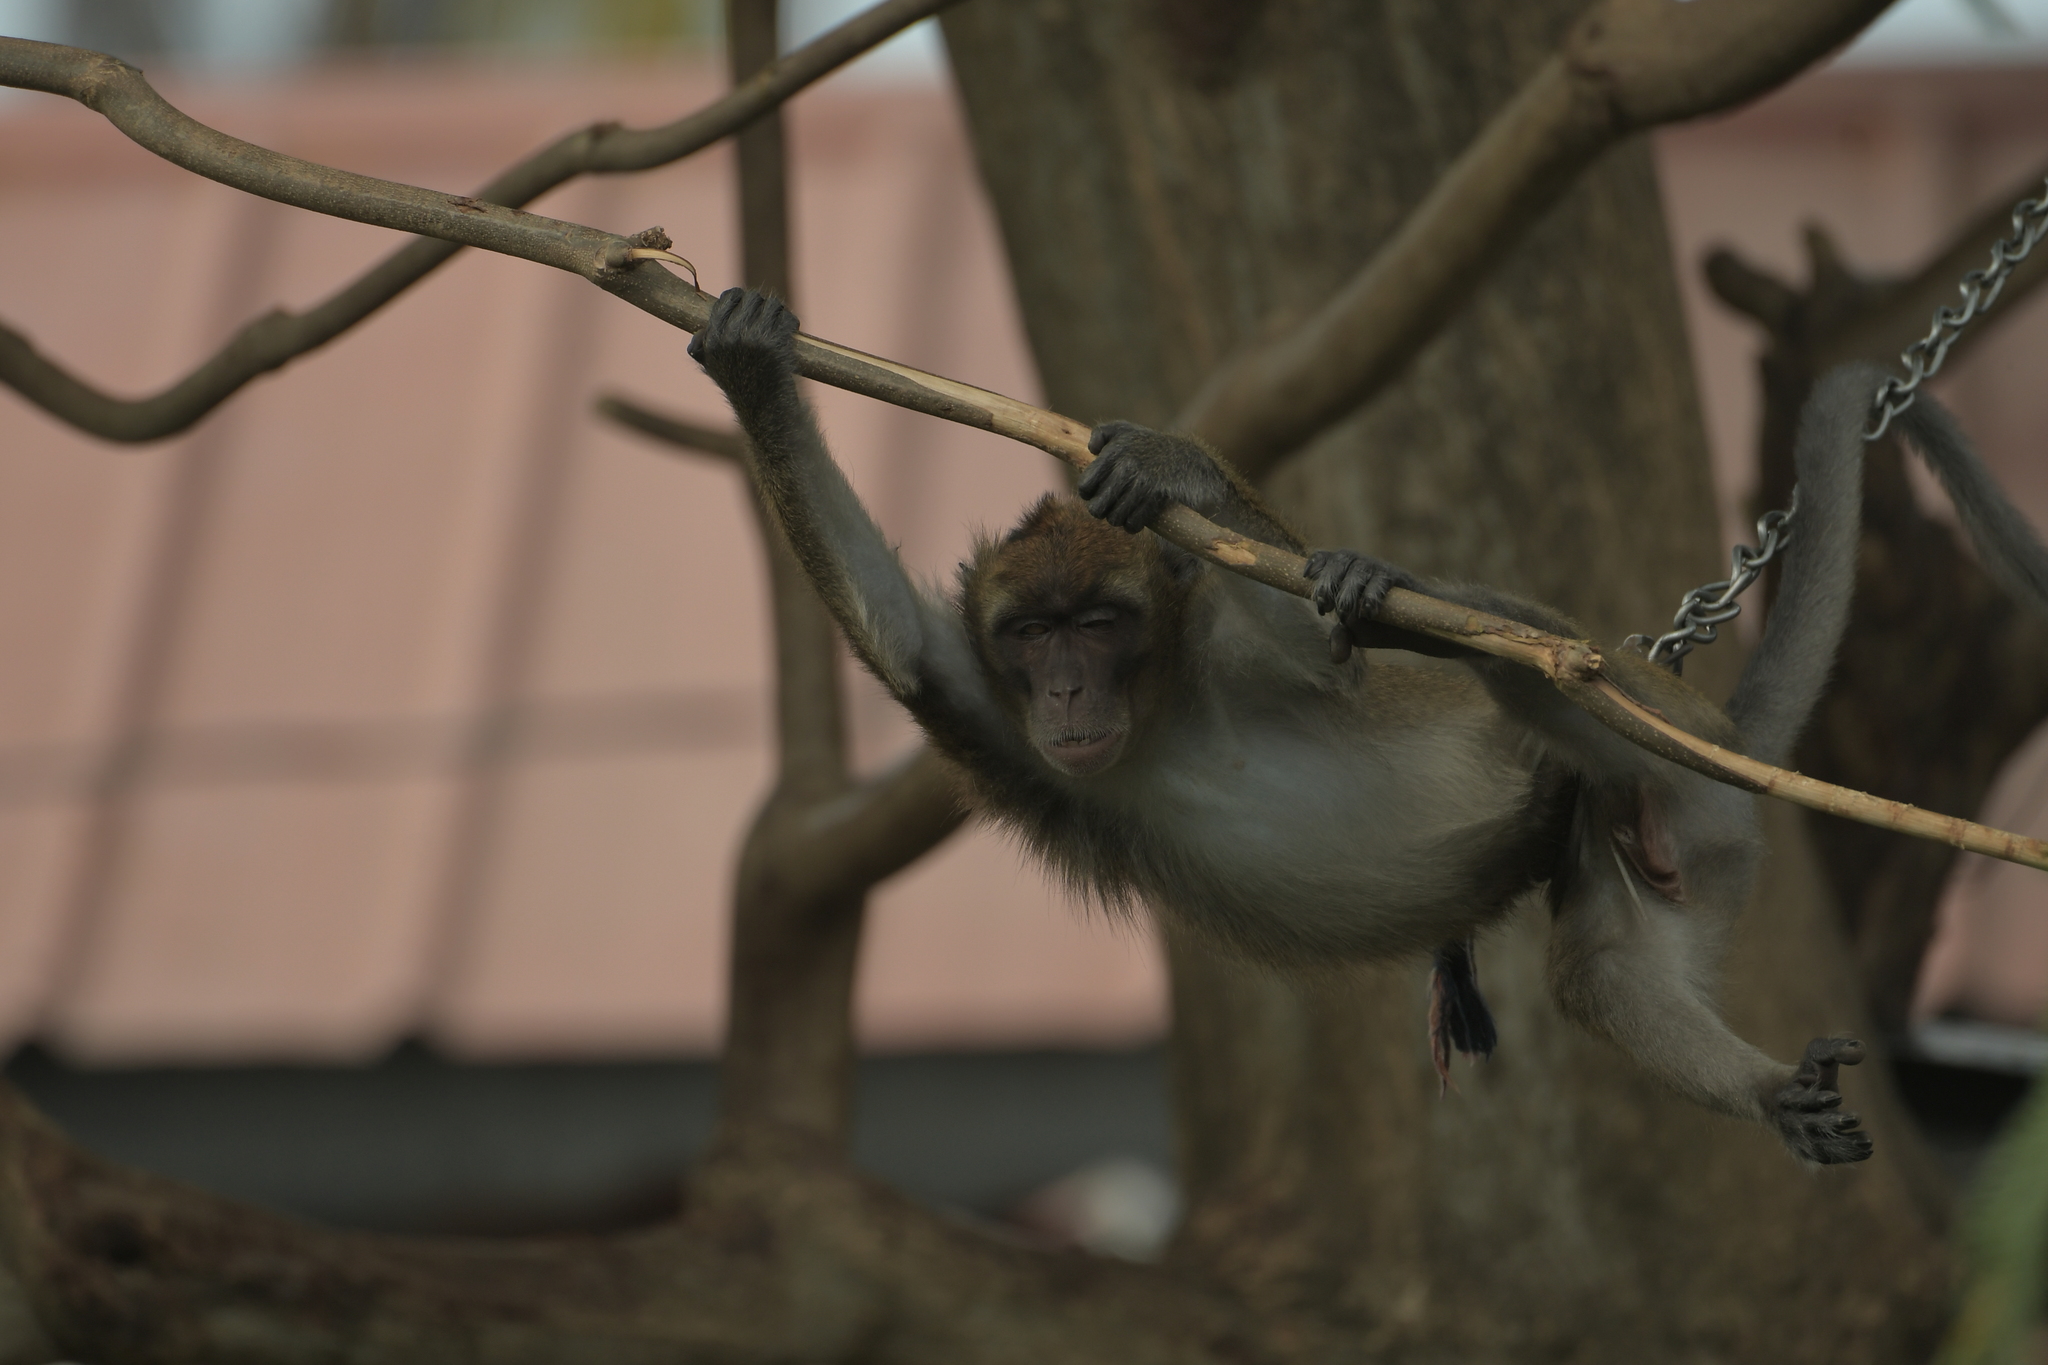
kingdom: Animalia
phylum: Chordata
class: Mammalia
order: Primates
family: Cercopithecidae
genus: Macaca
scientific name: Macaca fascicularis
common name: Crab-eating macaque
